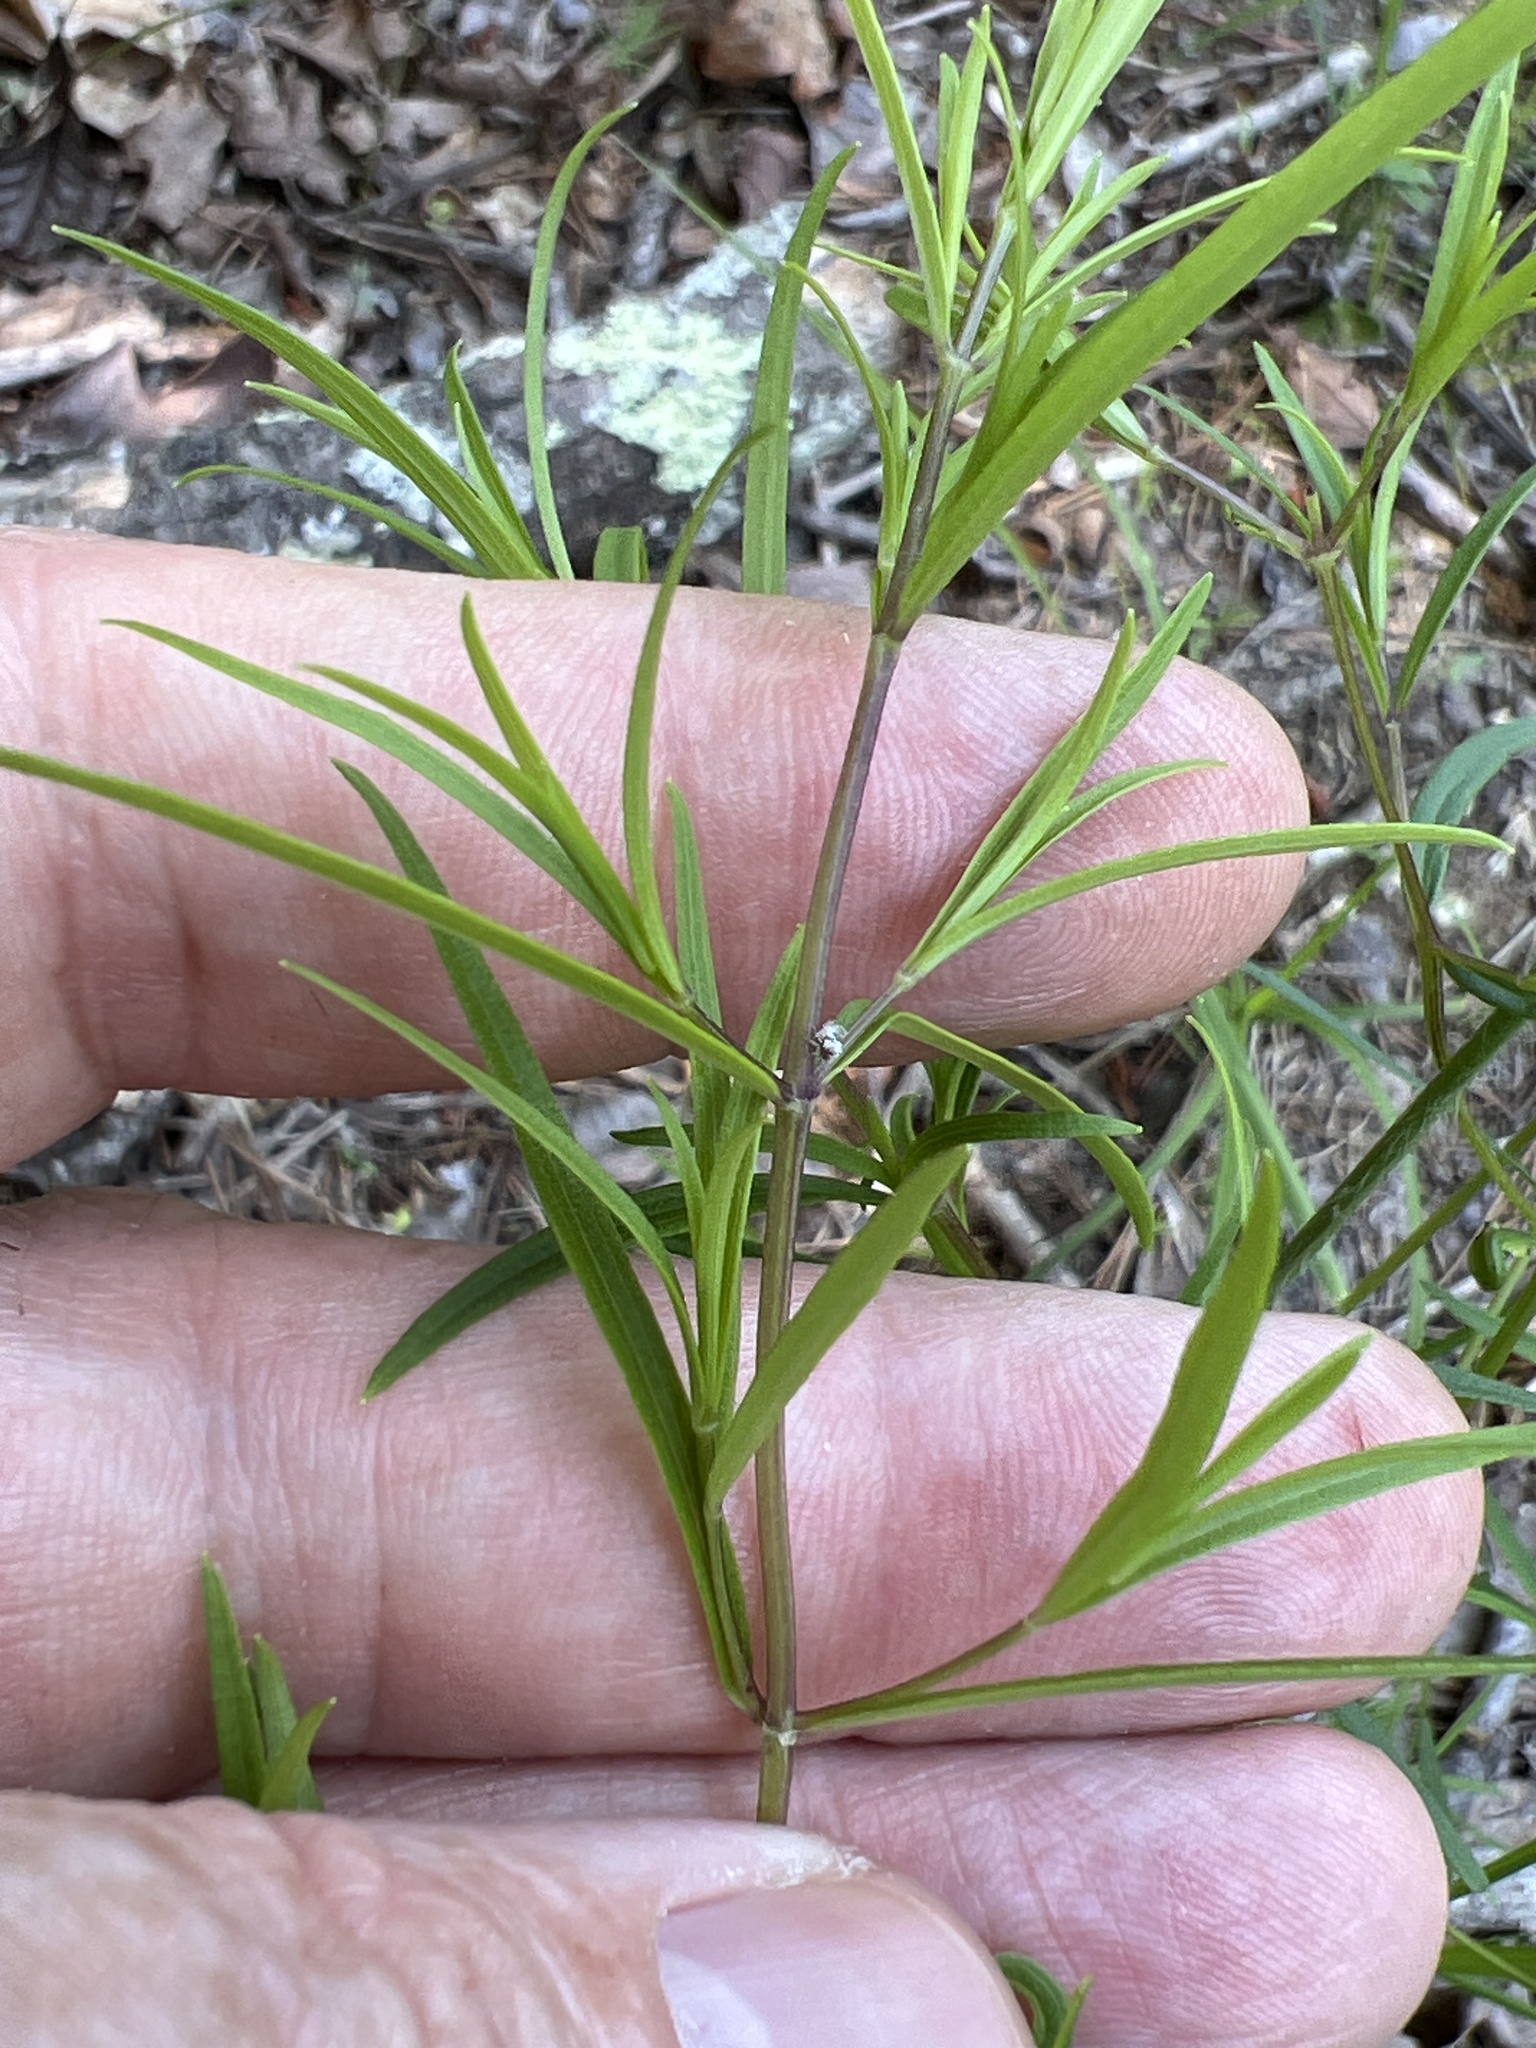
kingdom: Plantae
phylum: Tracheophyta
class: Magnoliopsida
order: Lamiales
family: Lamiaceae
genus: Pycnanthemum
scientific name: Pycnanthemum tenuifolium
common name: Narrow-leaf mountain-mint
